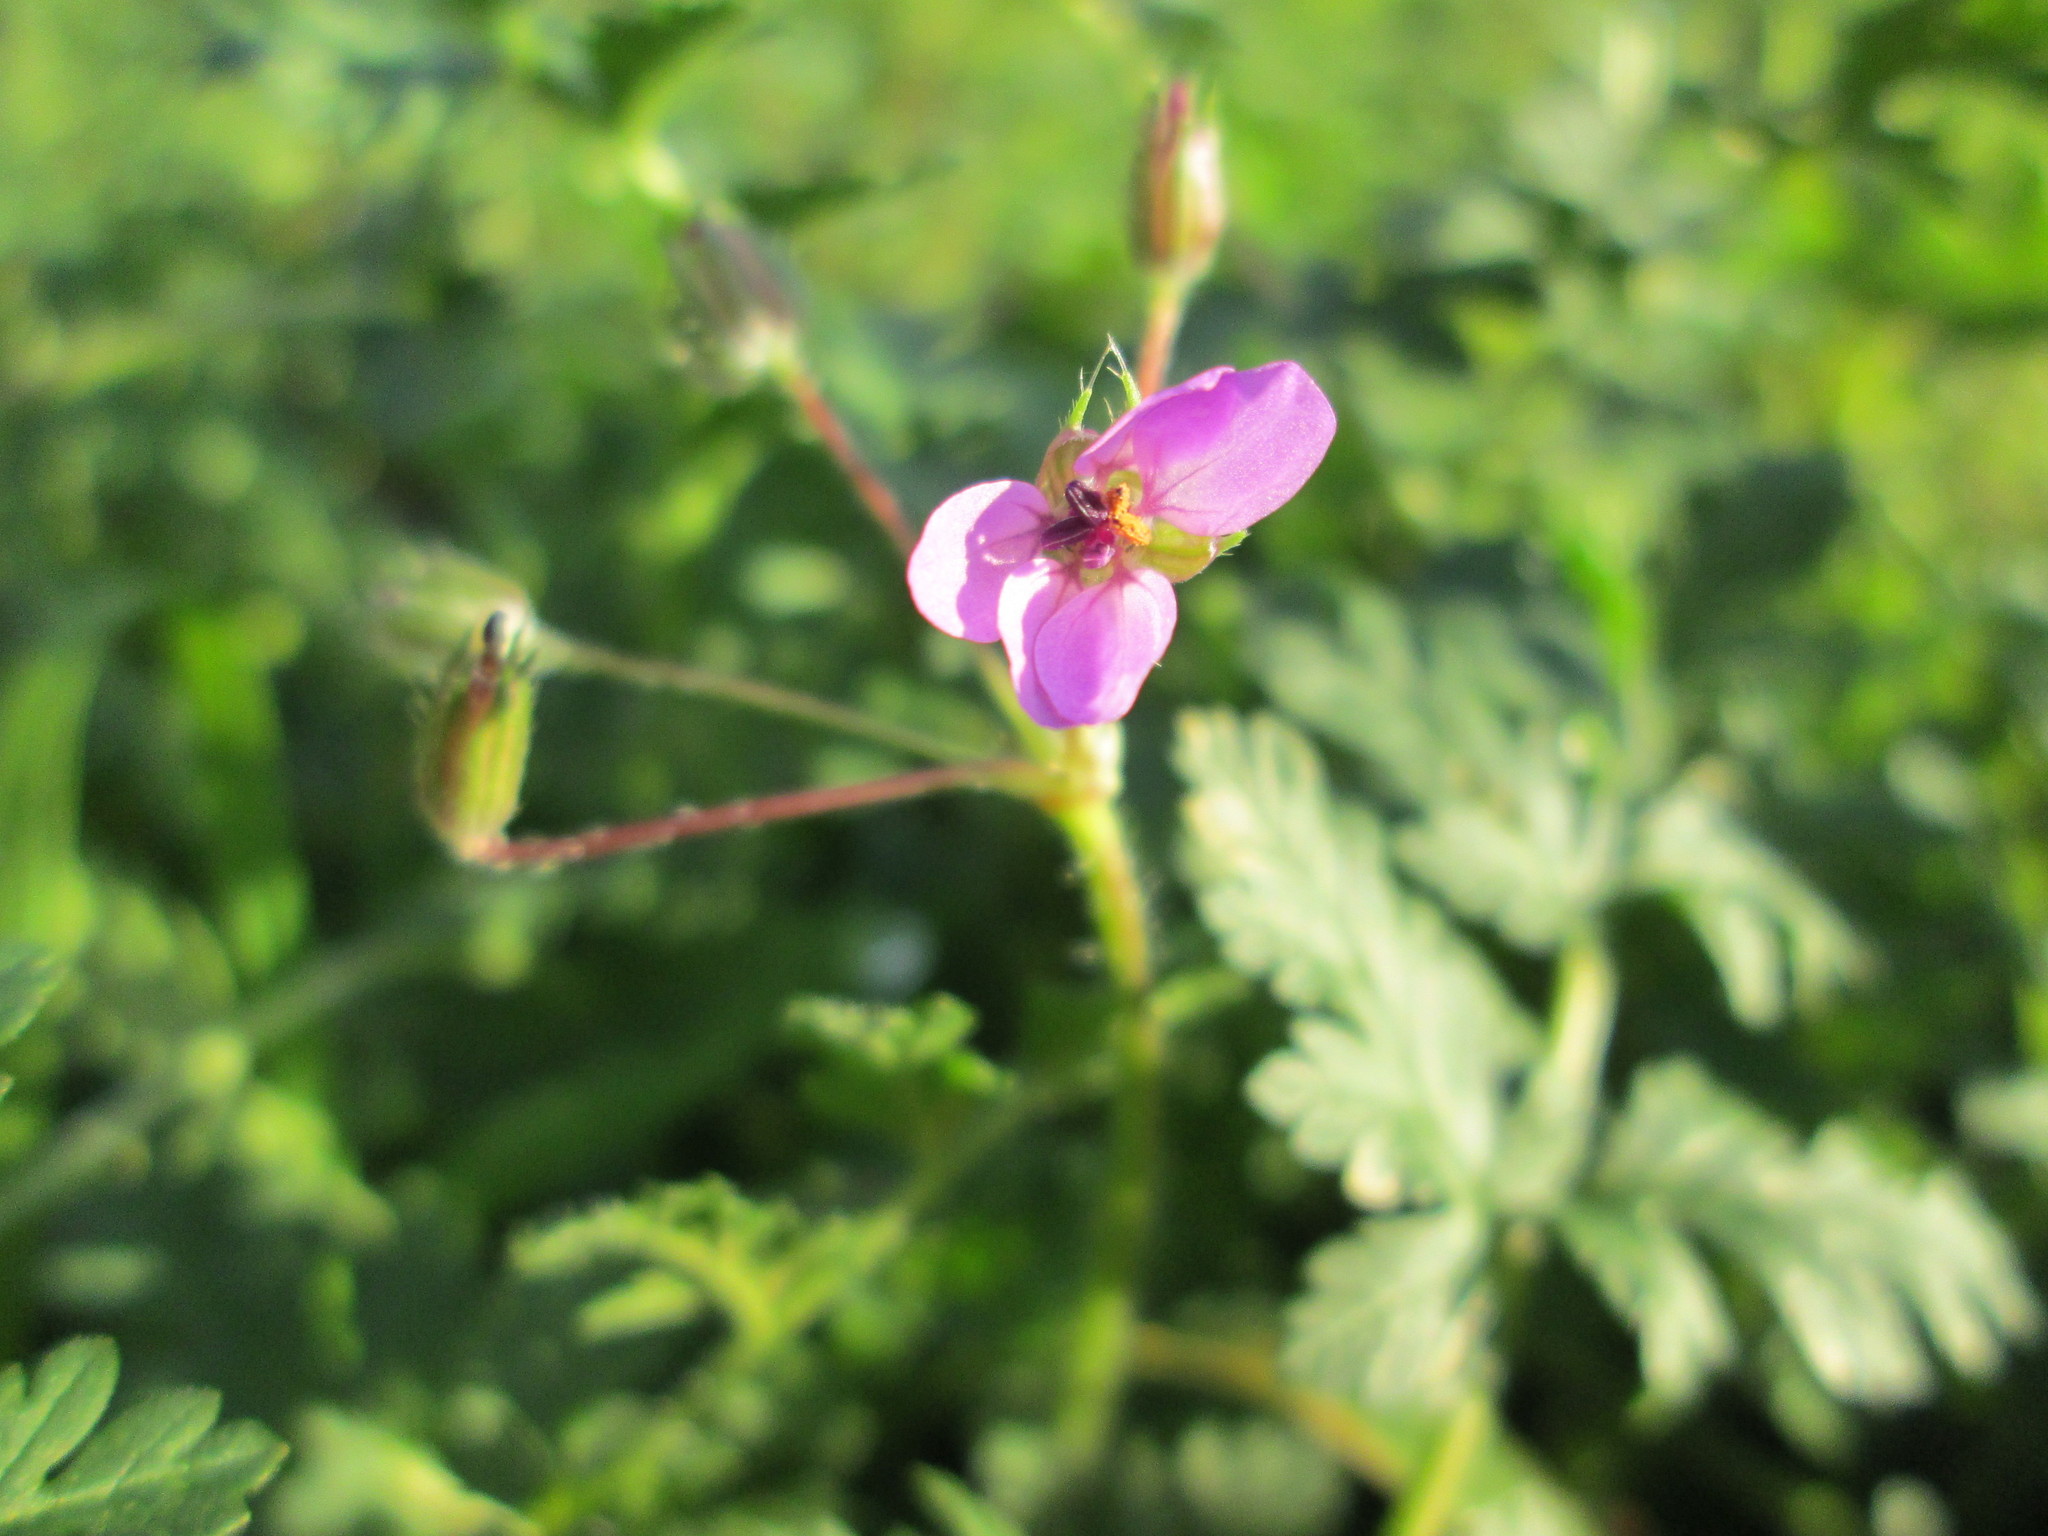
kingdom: Plantae
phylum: Tracheophyta
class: Magnoliopsida
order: Geraniales
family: Geraniaceae
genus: Erodium
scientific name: Erodium cicutarium
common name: Common stork's-bill
